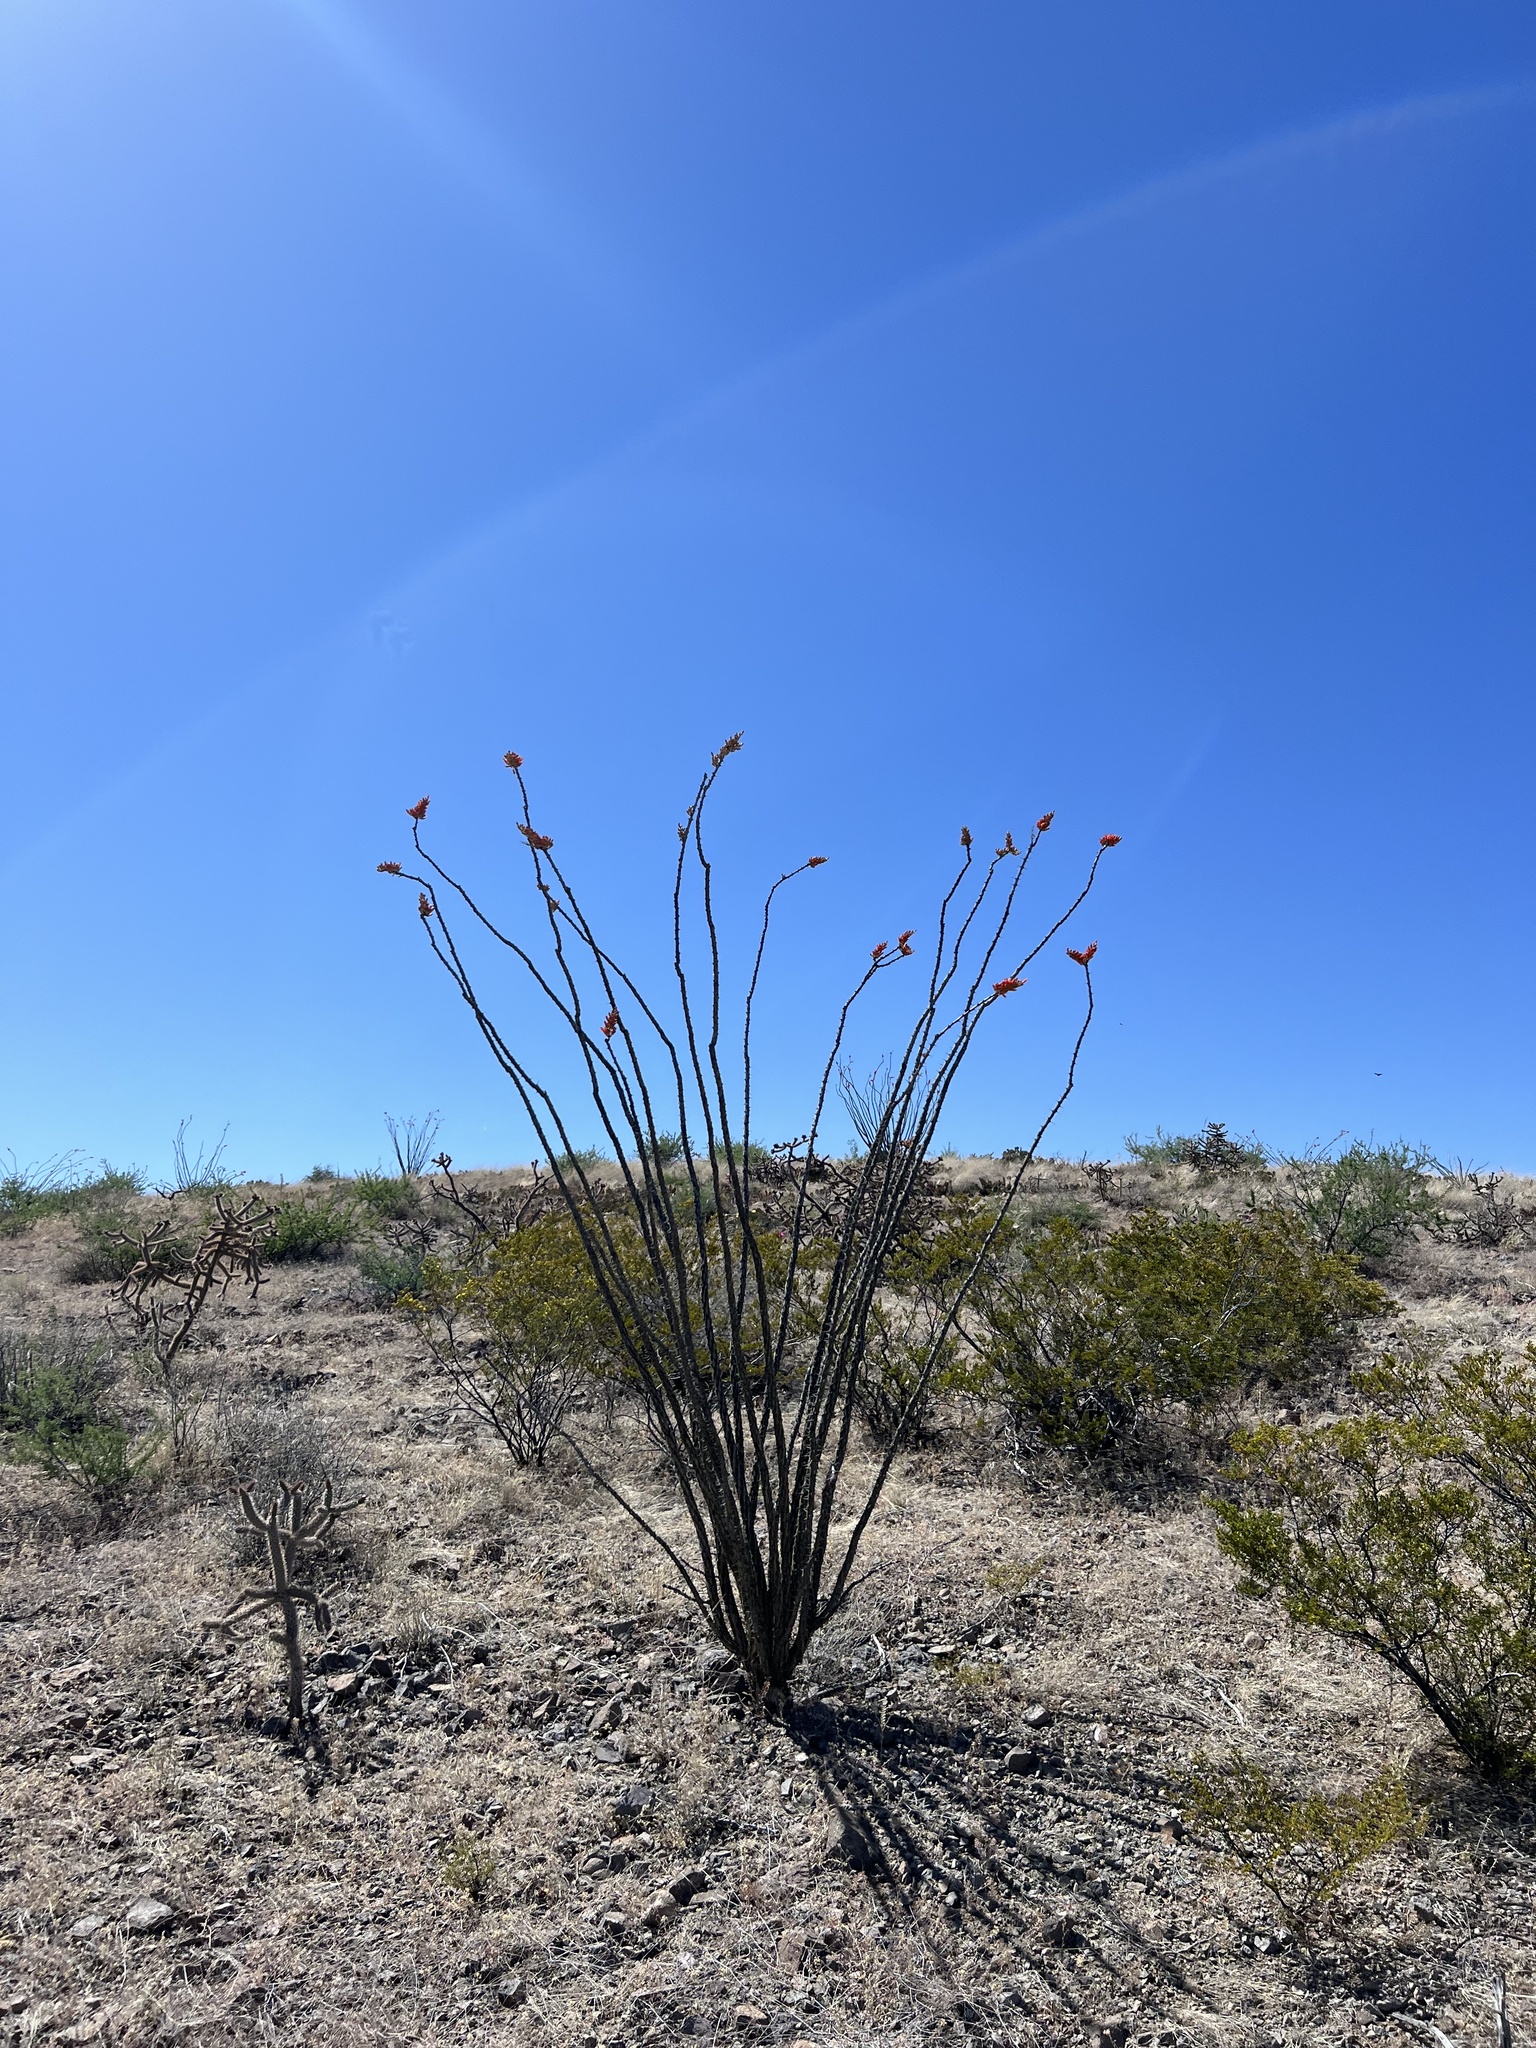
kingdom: Plantae
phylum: Tracheophyta
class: Magnoliopsida
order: Ericales
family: Fouquieriaceae
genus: Fouquieria
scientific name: Fouquieria splendens
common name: Vine-cactus
